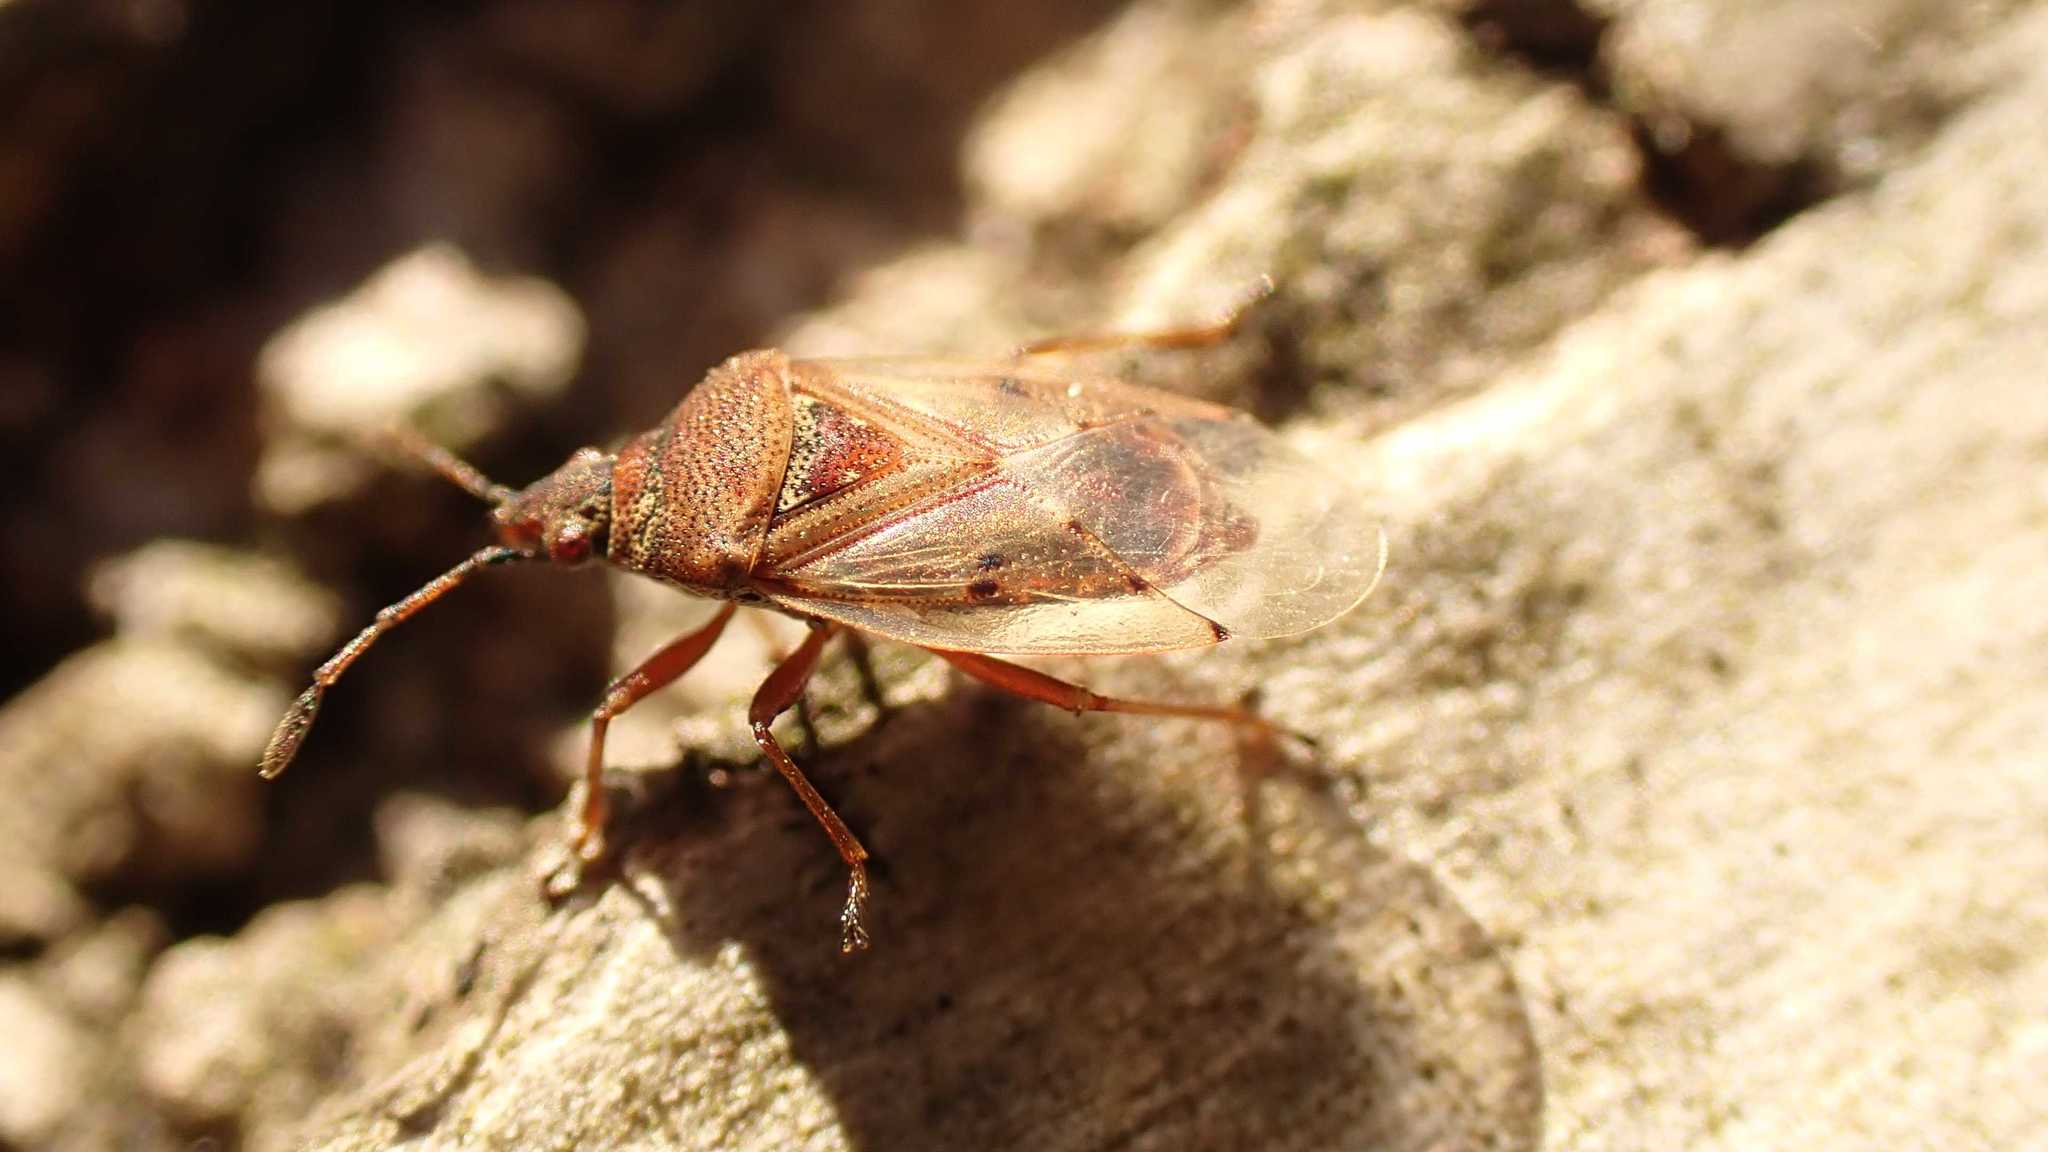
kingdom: Animalia
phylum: Arthropoda
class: Insecta
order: Hemiptera
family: Lygaeidae
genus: Kleidocerys
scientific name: Kleidocerys resedae
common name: Birch catkin bug
